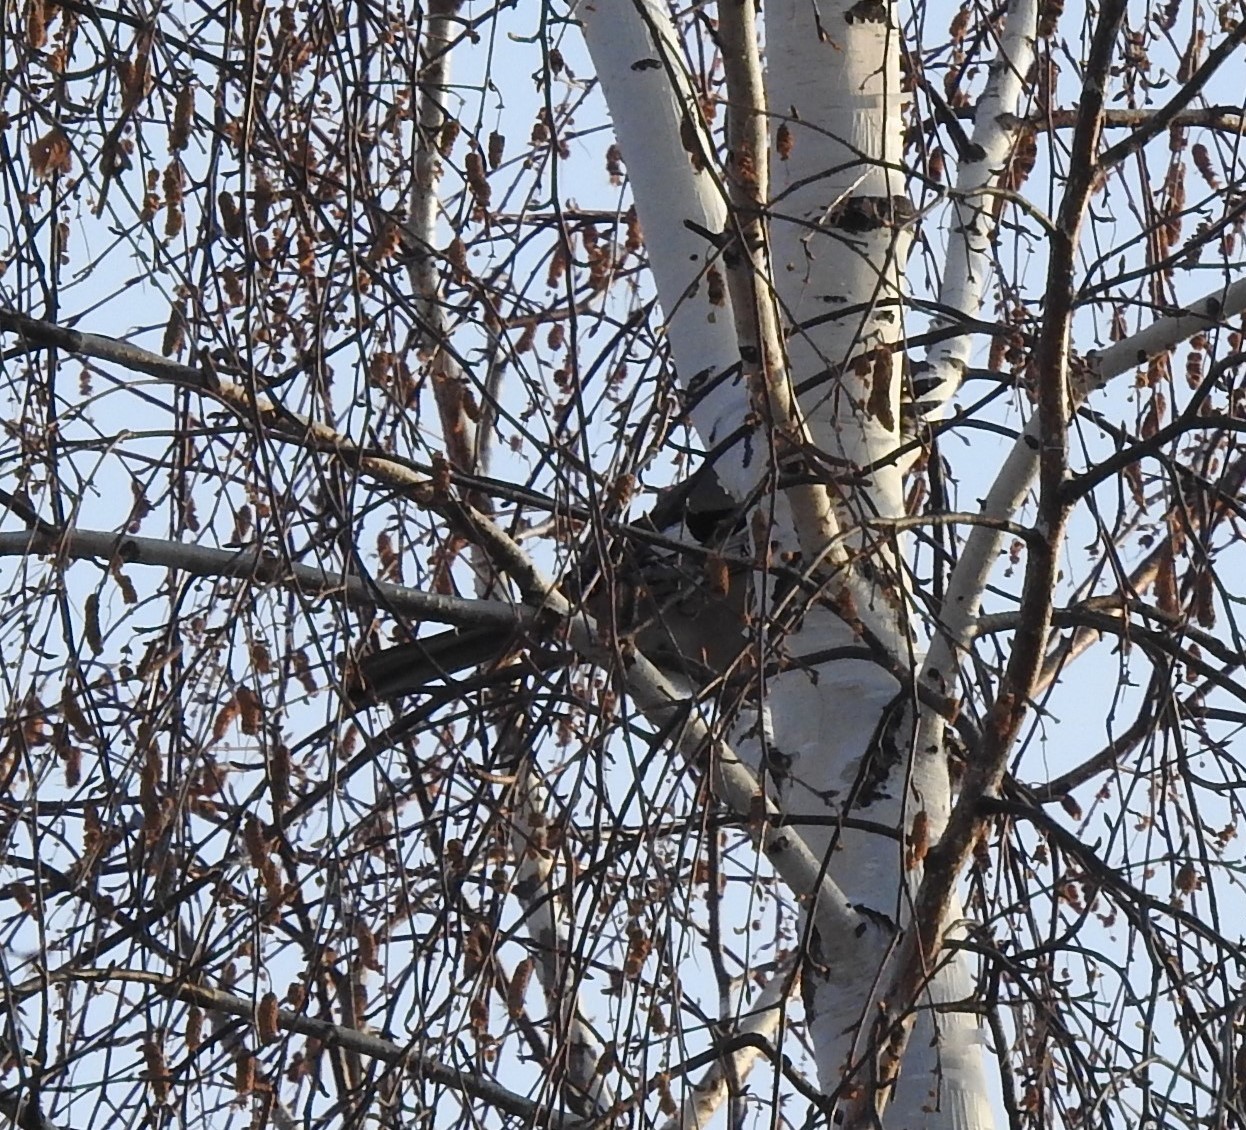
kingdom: Animalia
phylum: Chordata
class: Aves
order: Passeriformes
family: Corvidae
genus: Garrulus
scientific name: Garrulus glandarius
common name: Eurasian jay
